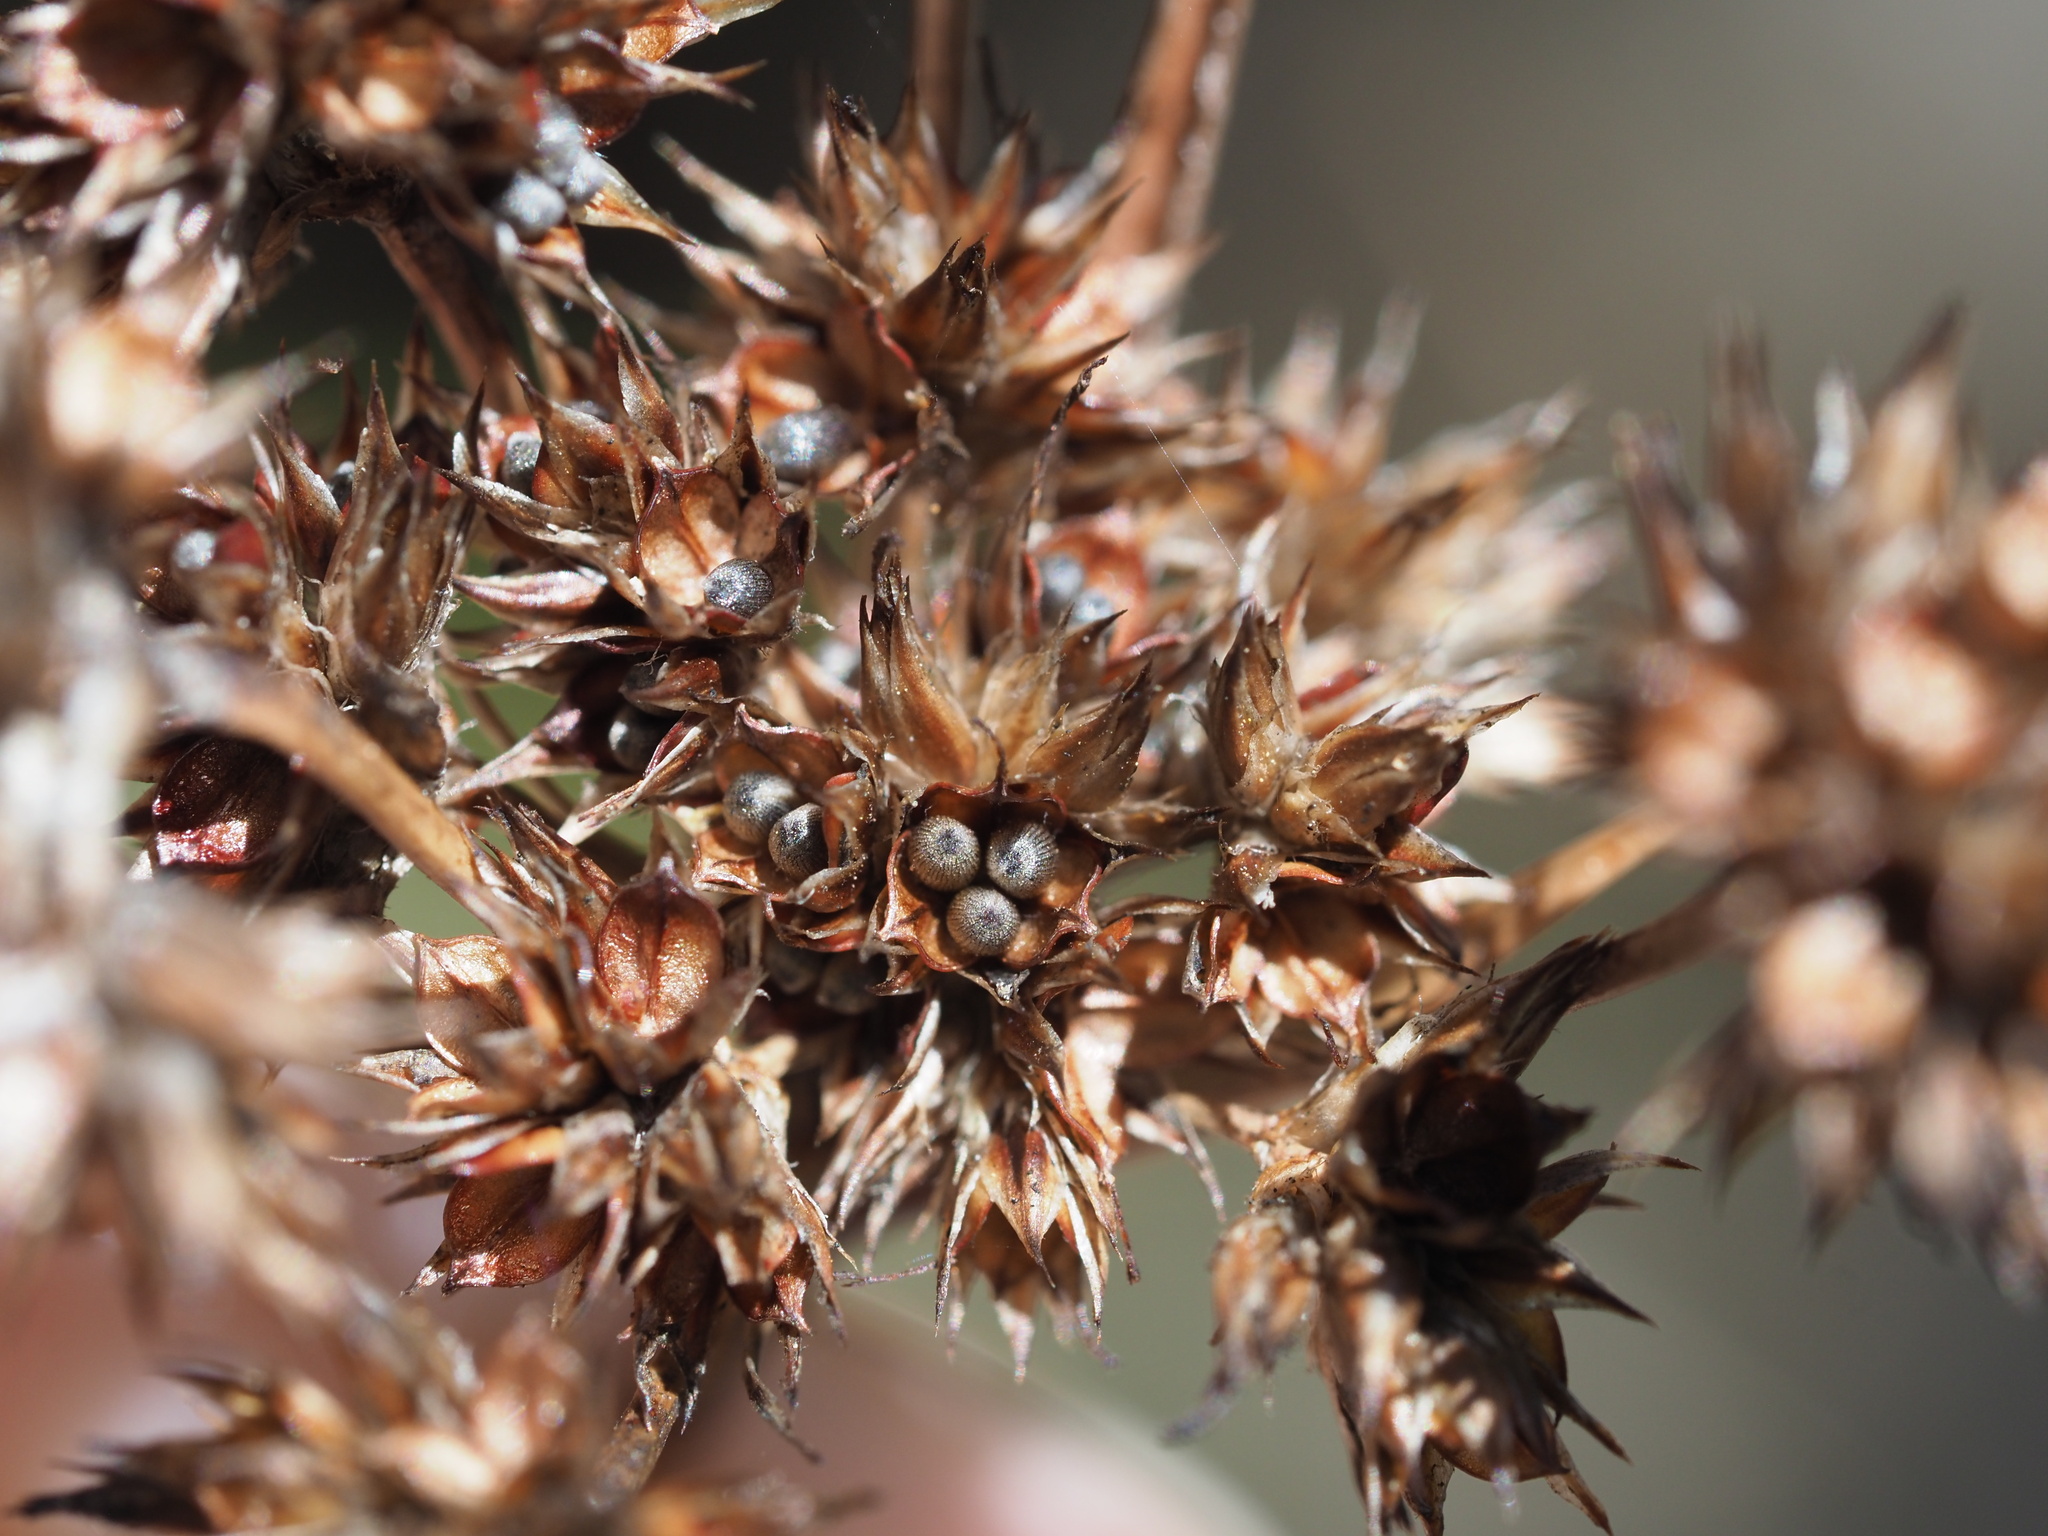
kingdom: Plantae
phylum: Tracheophyta
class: Liliopsida
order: Poales
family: Juncaceae
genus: Luzula
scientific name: Luzula hawaiiensis
